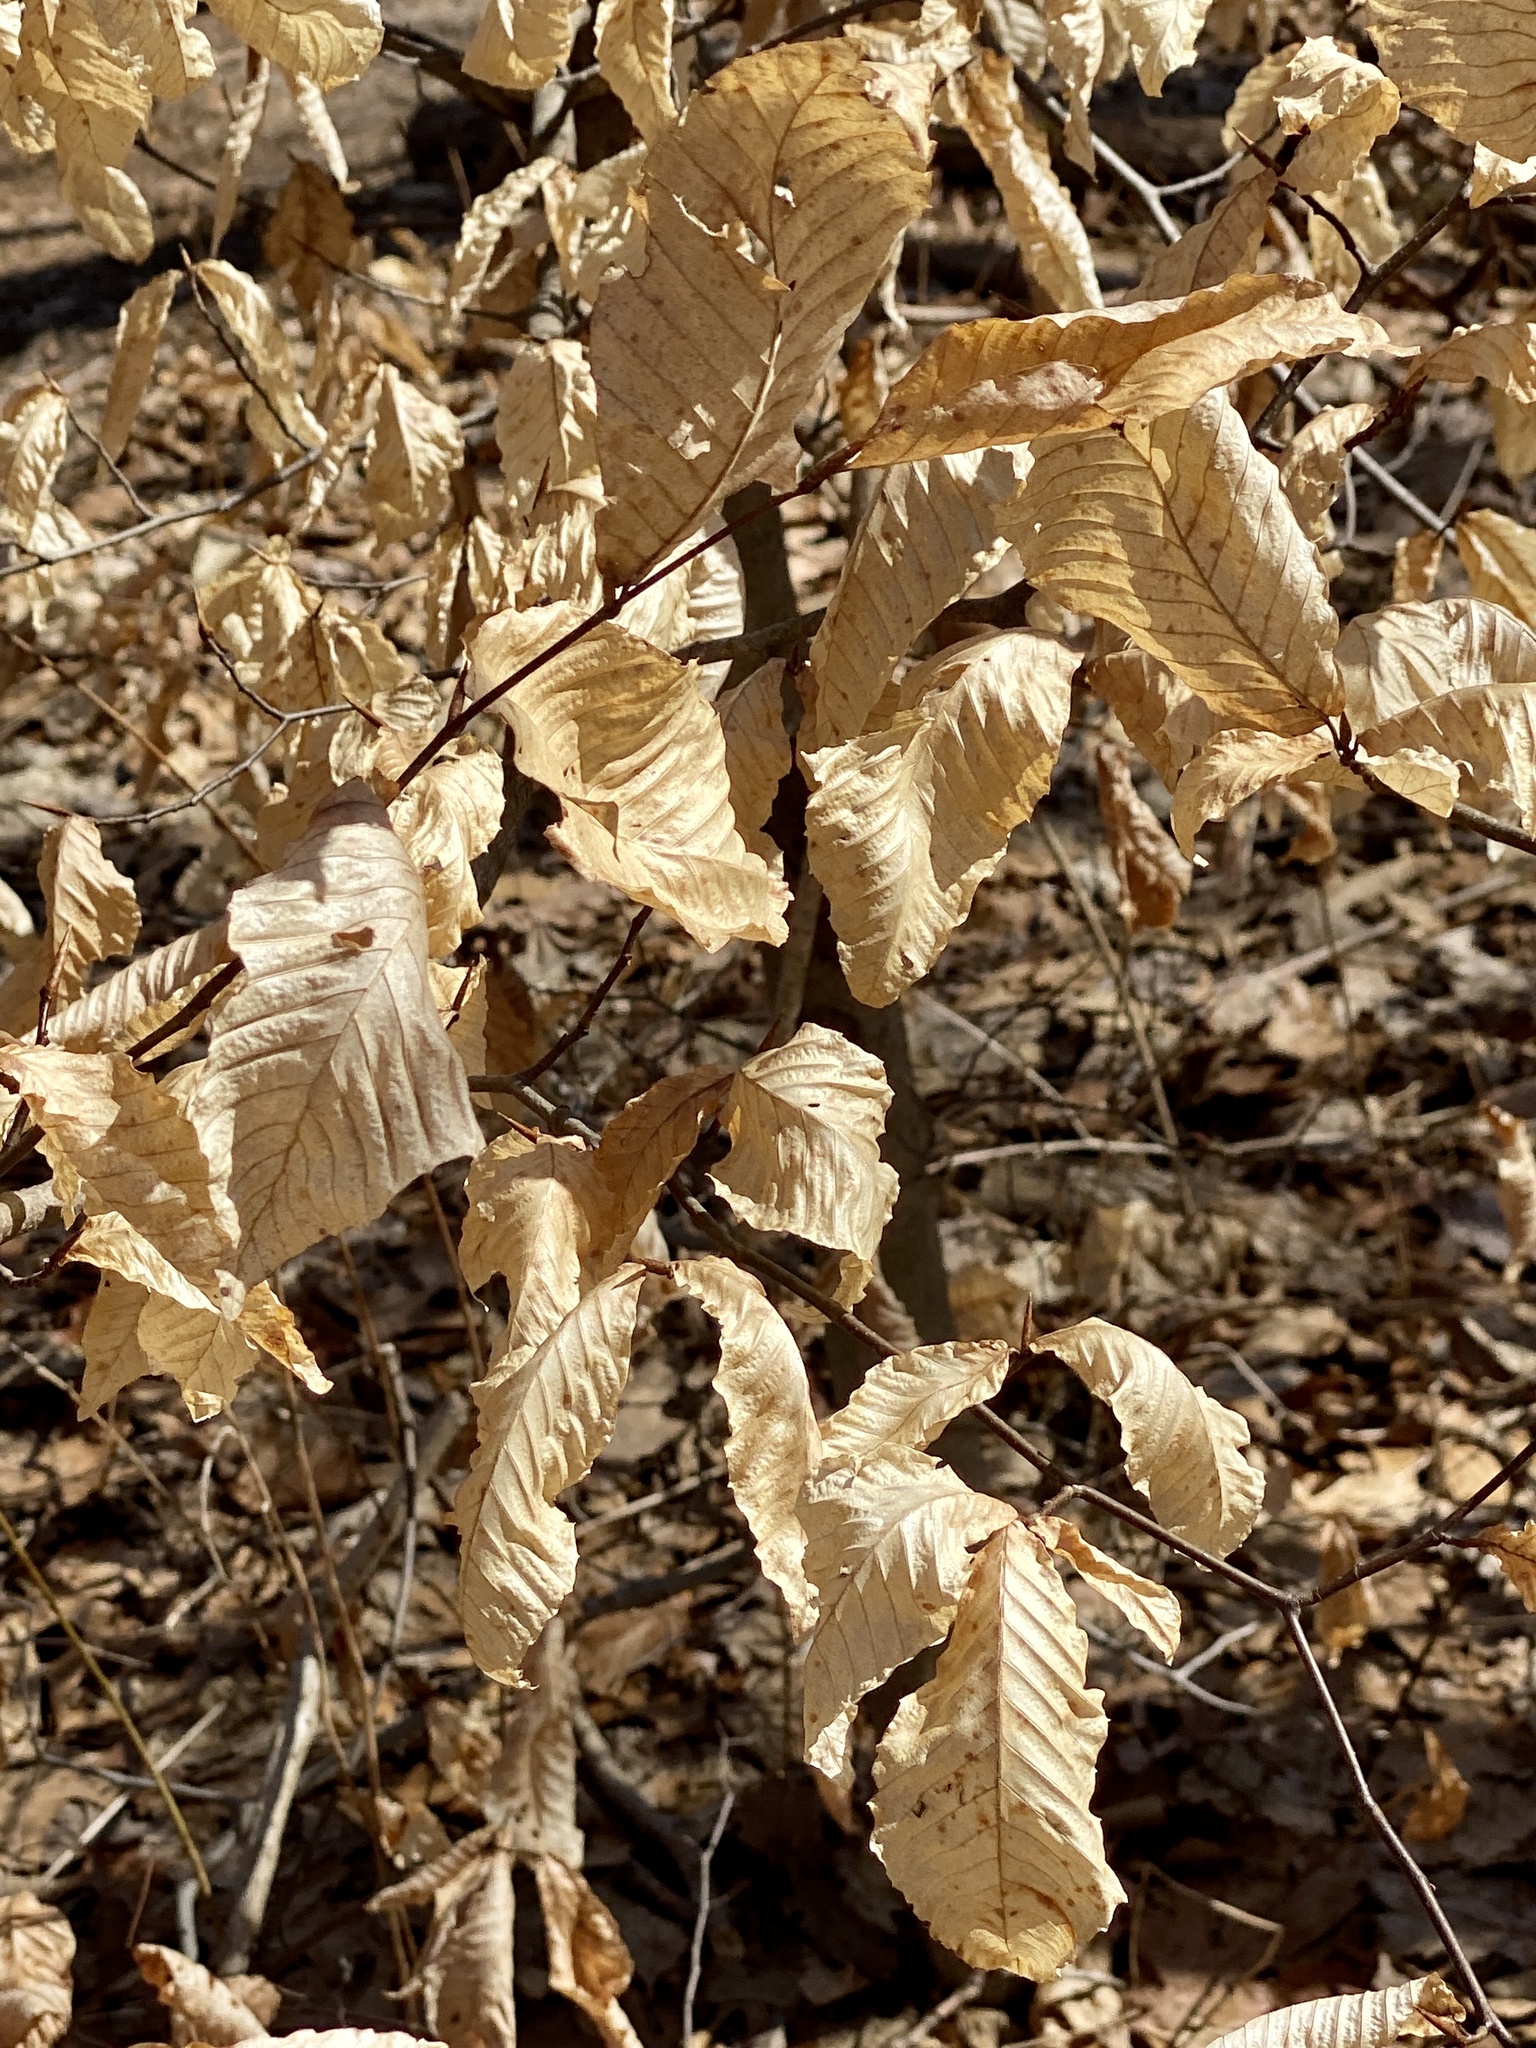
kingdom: Plantae
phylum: Tracheophyta
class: Magnoliopsida
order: Fagales
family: Fagaceae
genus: Fagus
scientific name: Fagus grandifolia
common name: American beech
